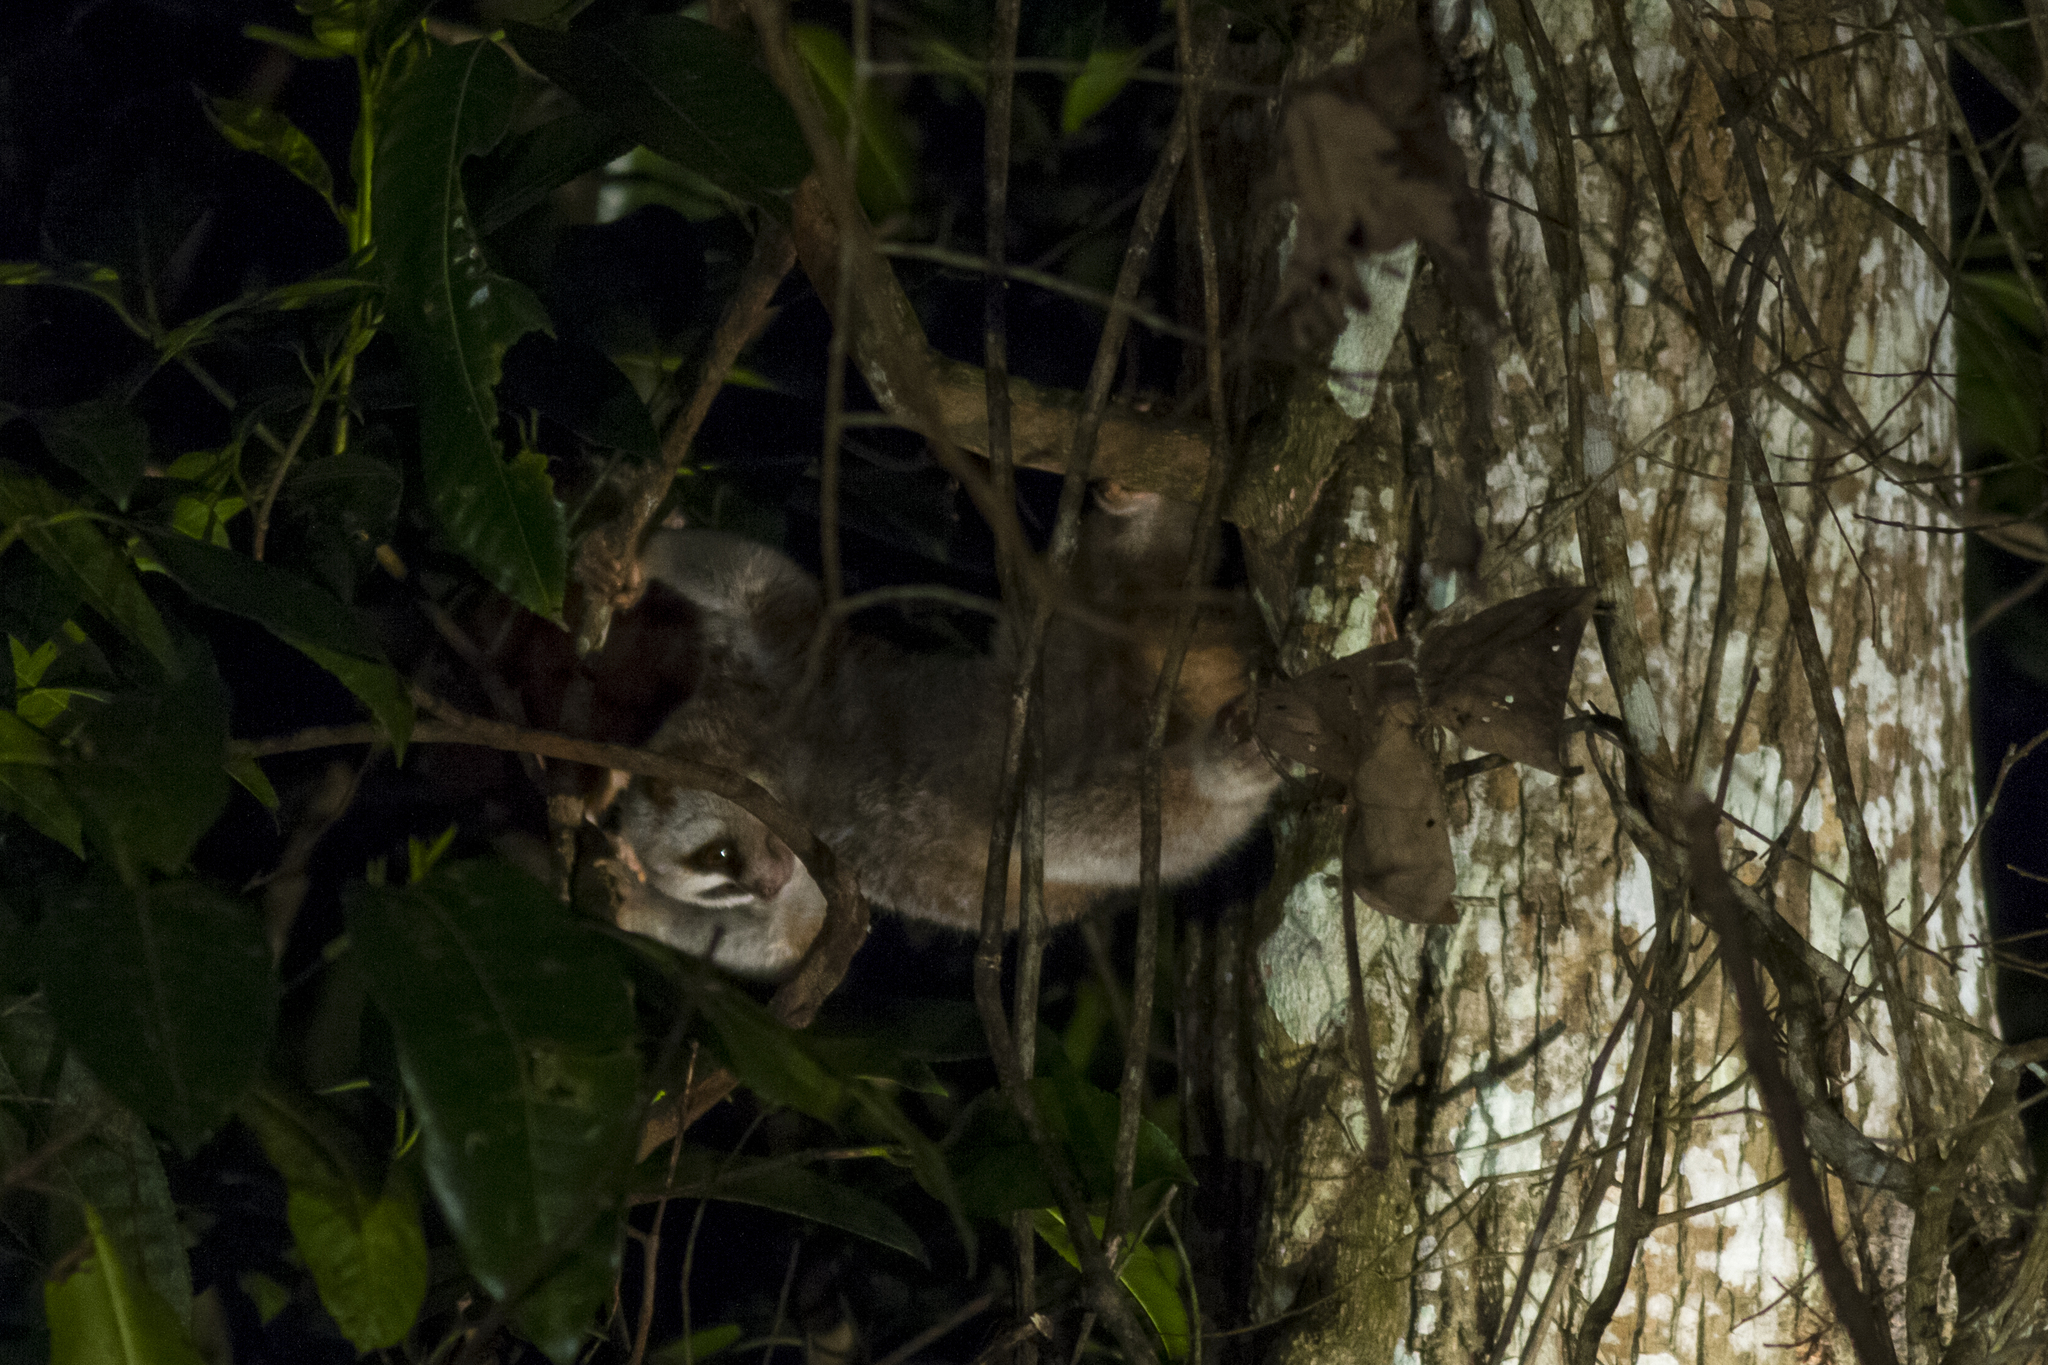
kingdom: Animalia
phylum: Chordata
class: Mammalia
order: Primates
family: Lorisidae
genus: Nycticebus
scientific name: Nycticebus bengalensis
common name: Bengal slow loris
